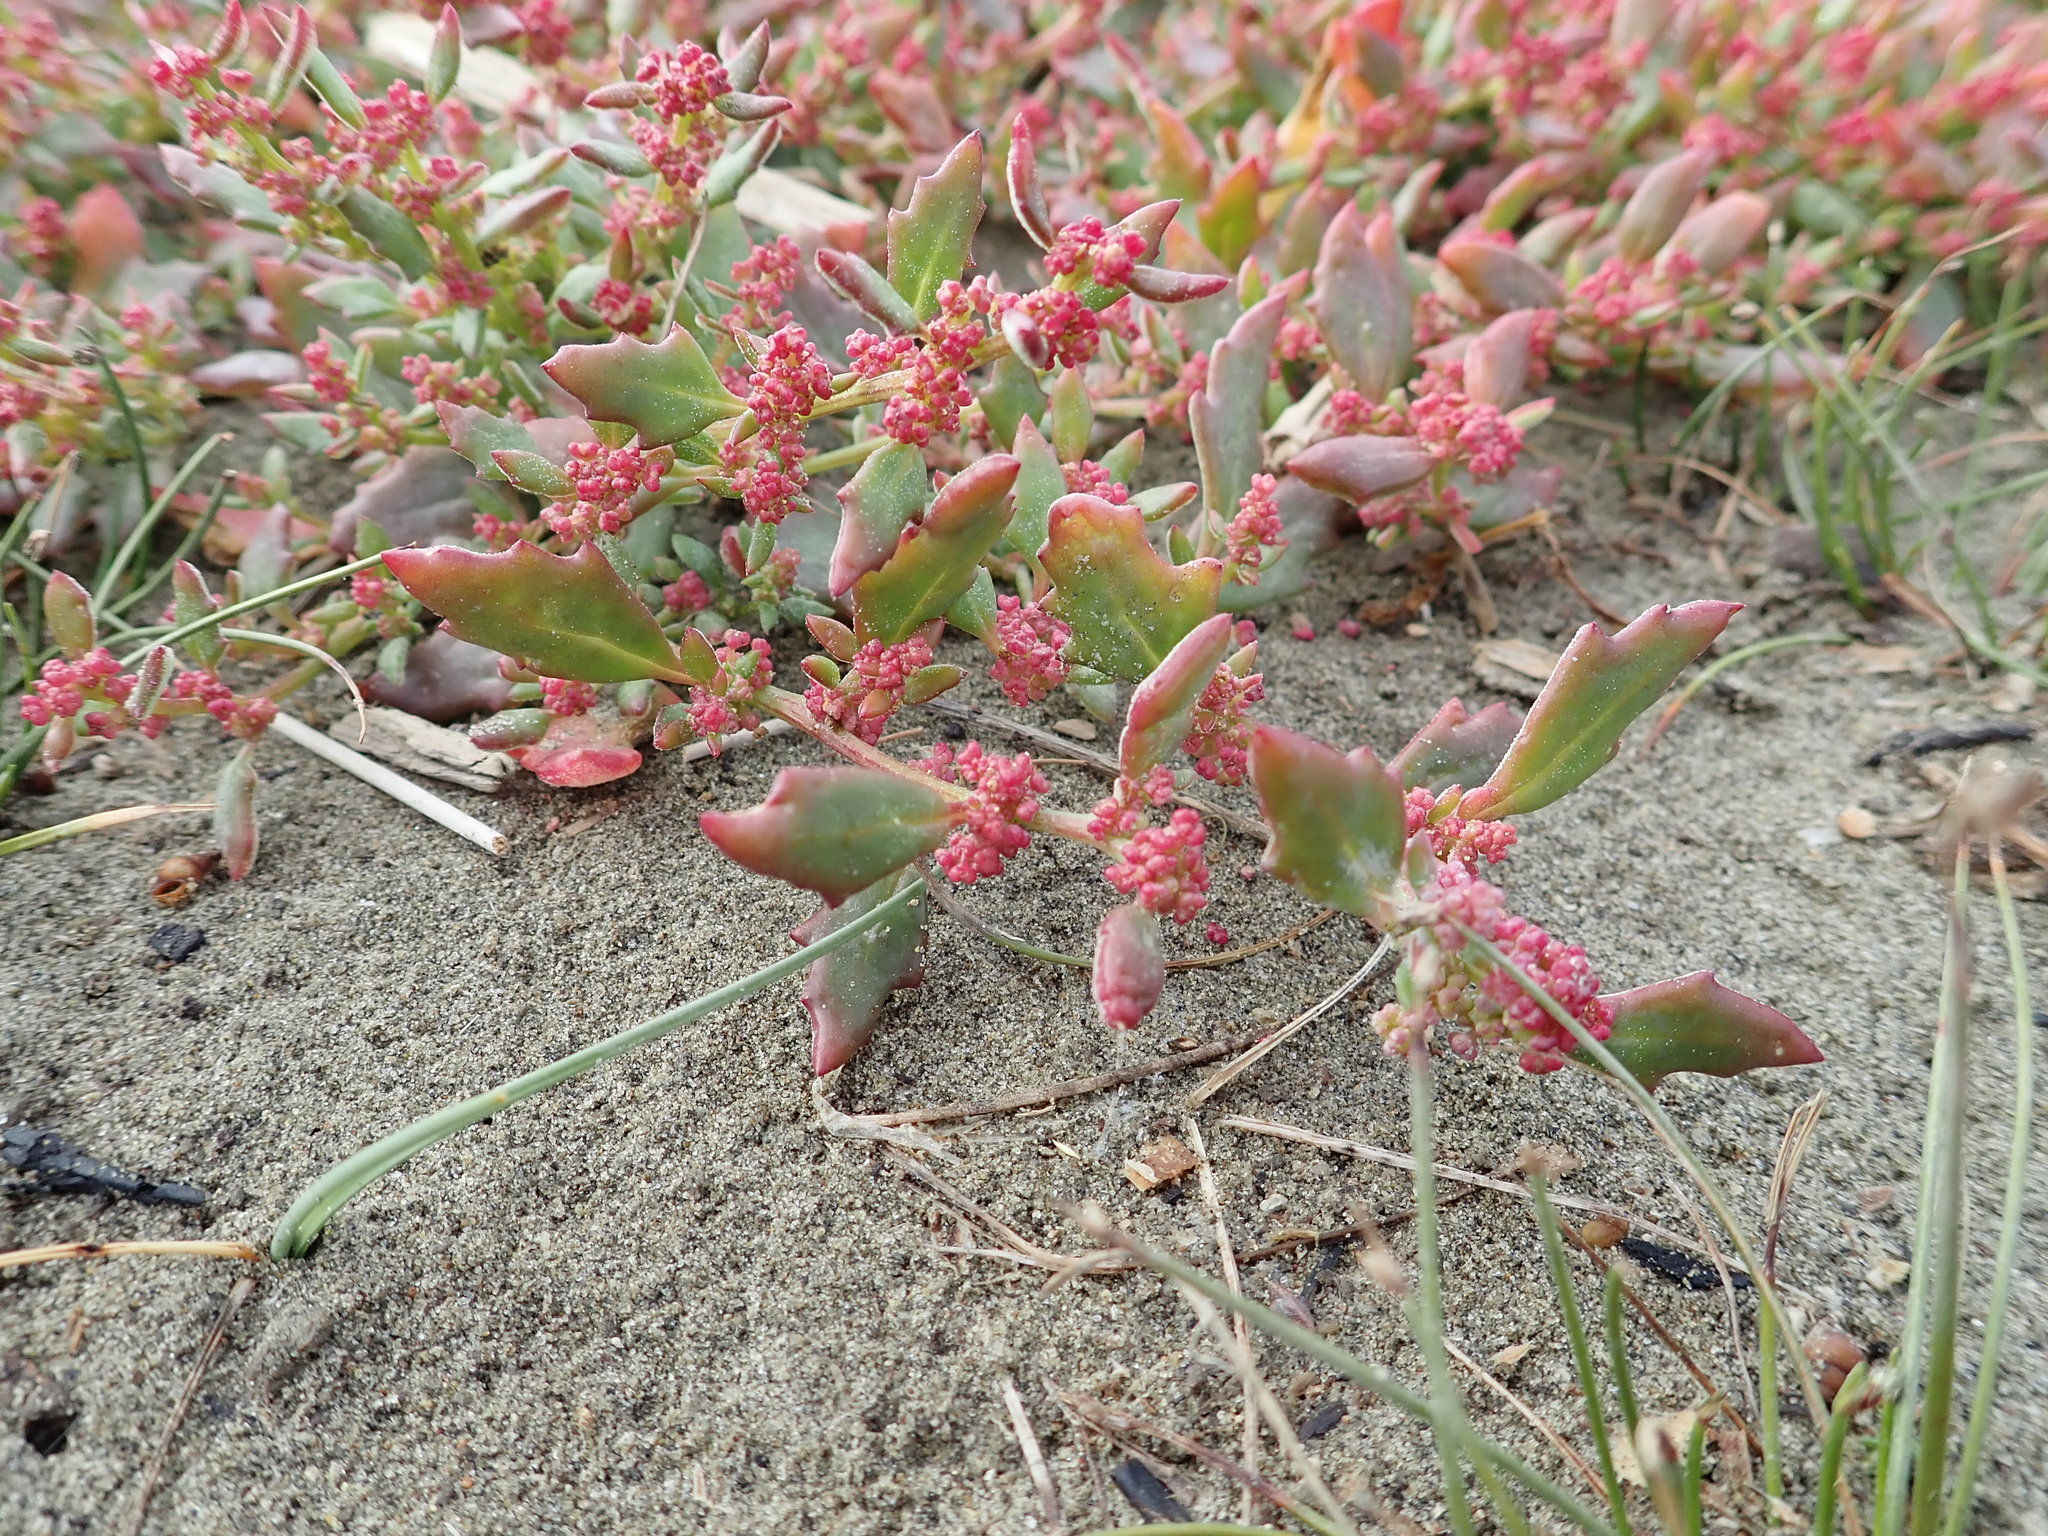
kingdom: Plantae
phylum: Tracheophyta
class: Magnoliopsida
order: Caryophyllales
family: Amaranthaceae
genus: Oxybasis
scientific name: Oxybasis ambigua
